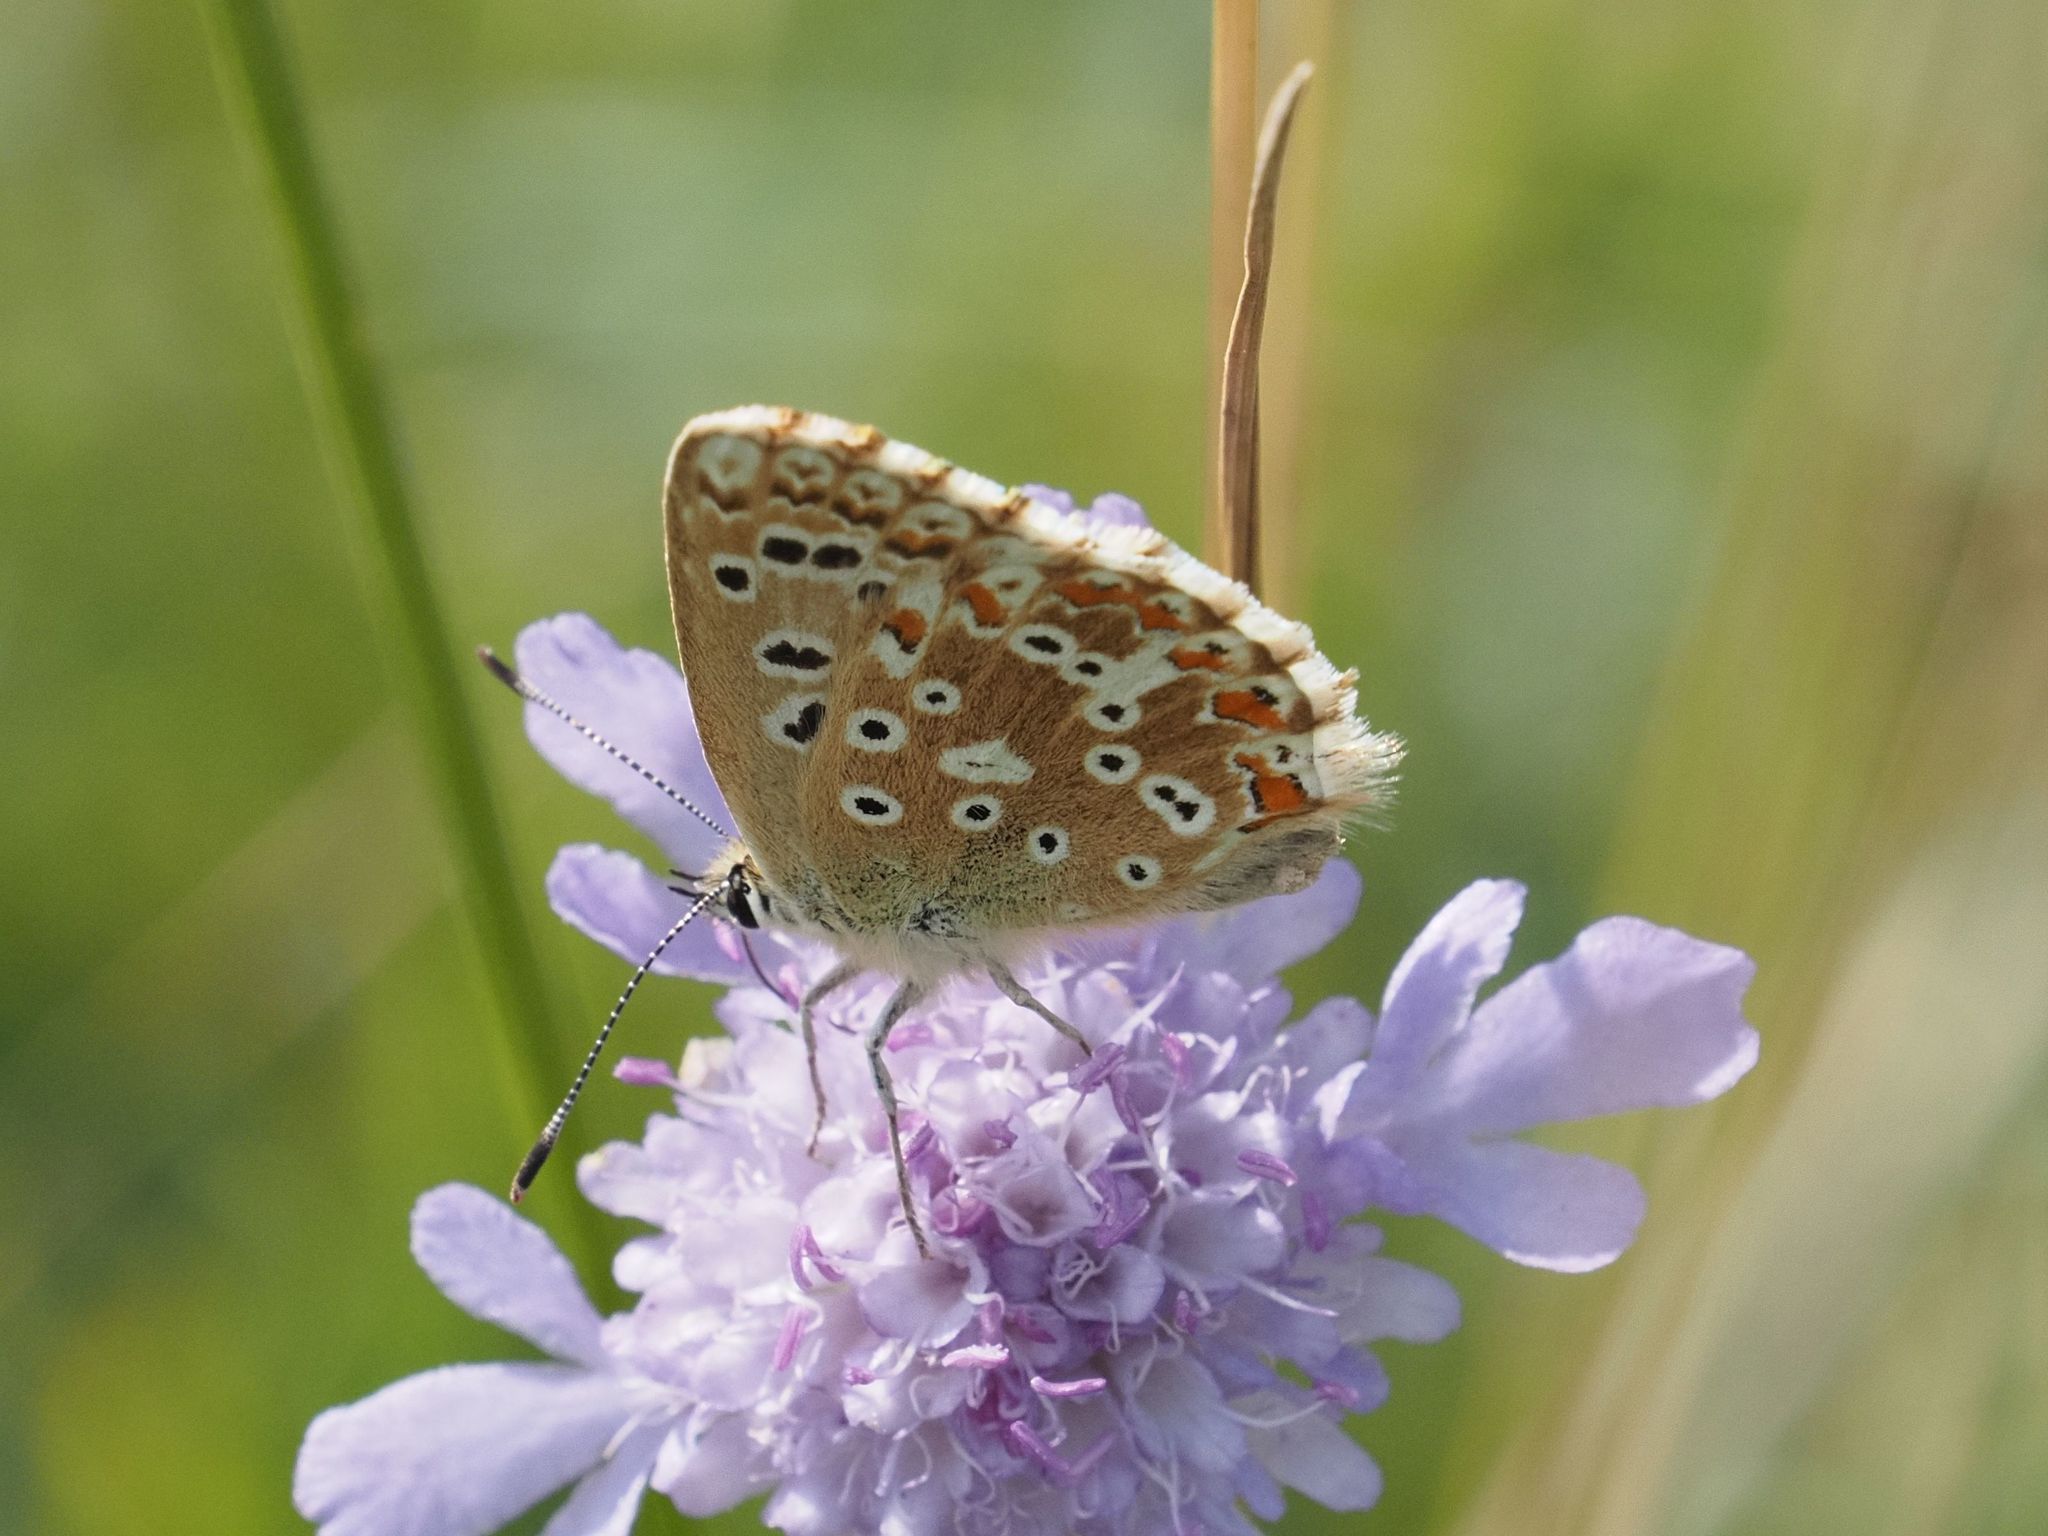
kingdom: Animalia
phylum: Arthropoda
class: Insecta
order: Lepidoptera
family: Lycaenidae
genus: Lysandra
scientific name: Lysandra coridon
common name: Chalkhill blue
